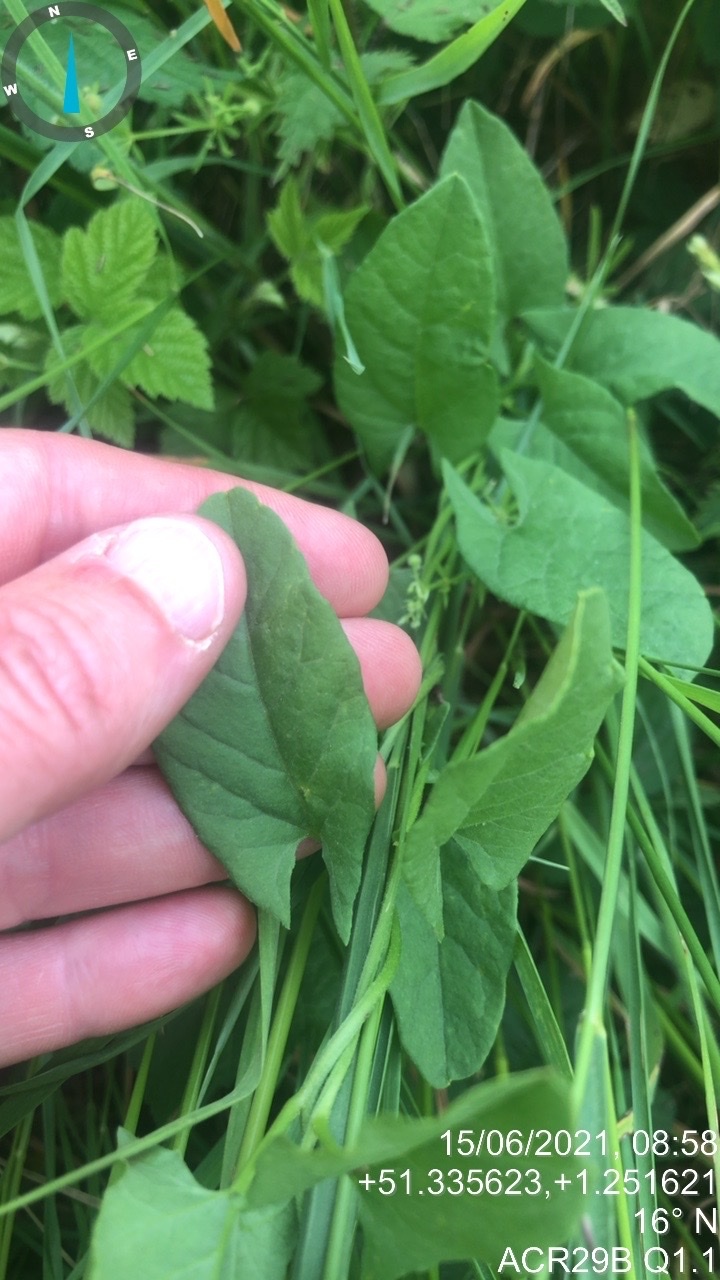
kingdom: Plantae
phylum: Tracheophyta
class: Magnoliopsida
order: Solanales
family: Convolvulaceae
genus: Convolvulus
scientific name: Convolvulus arvensis
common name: Field bindweed
